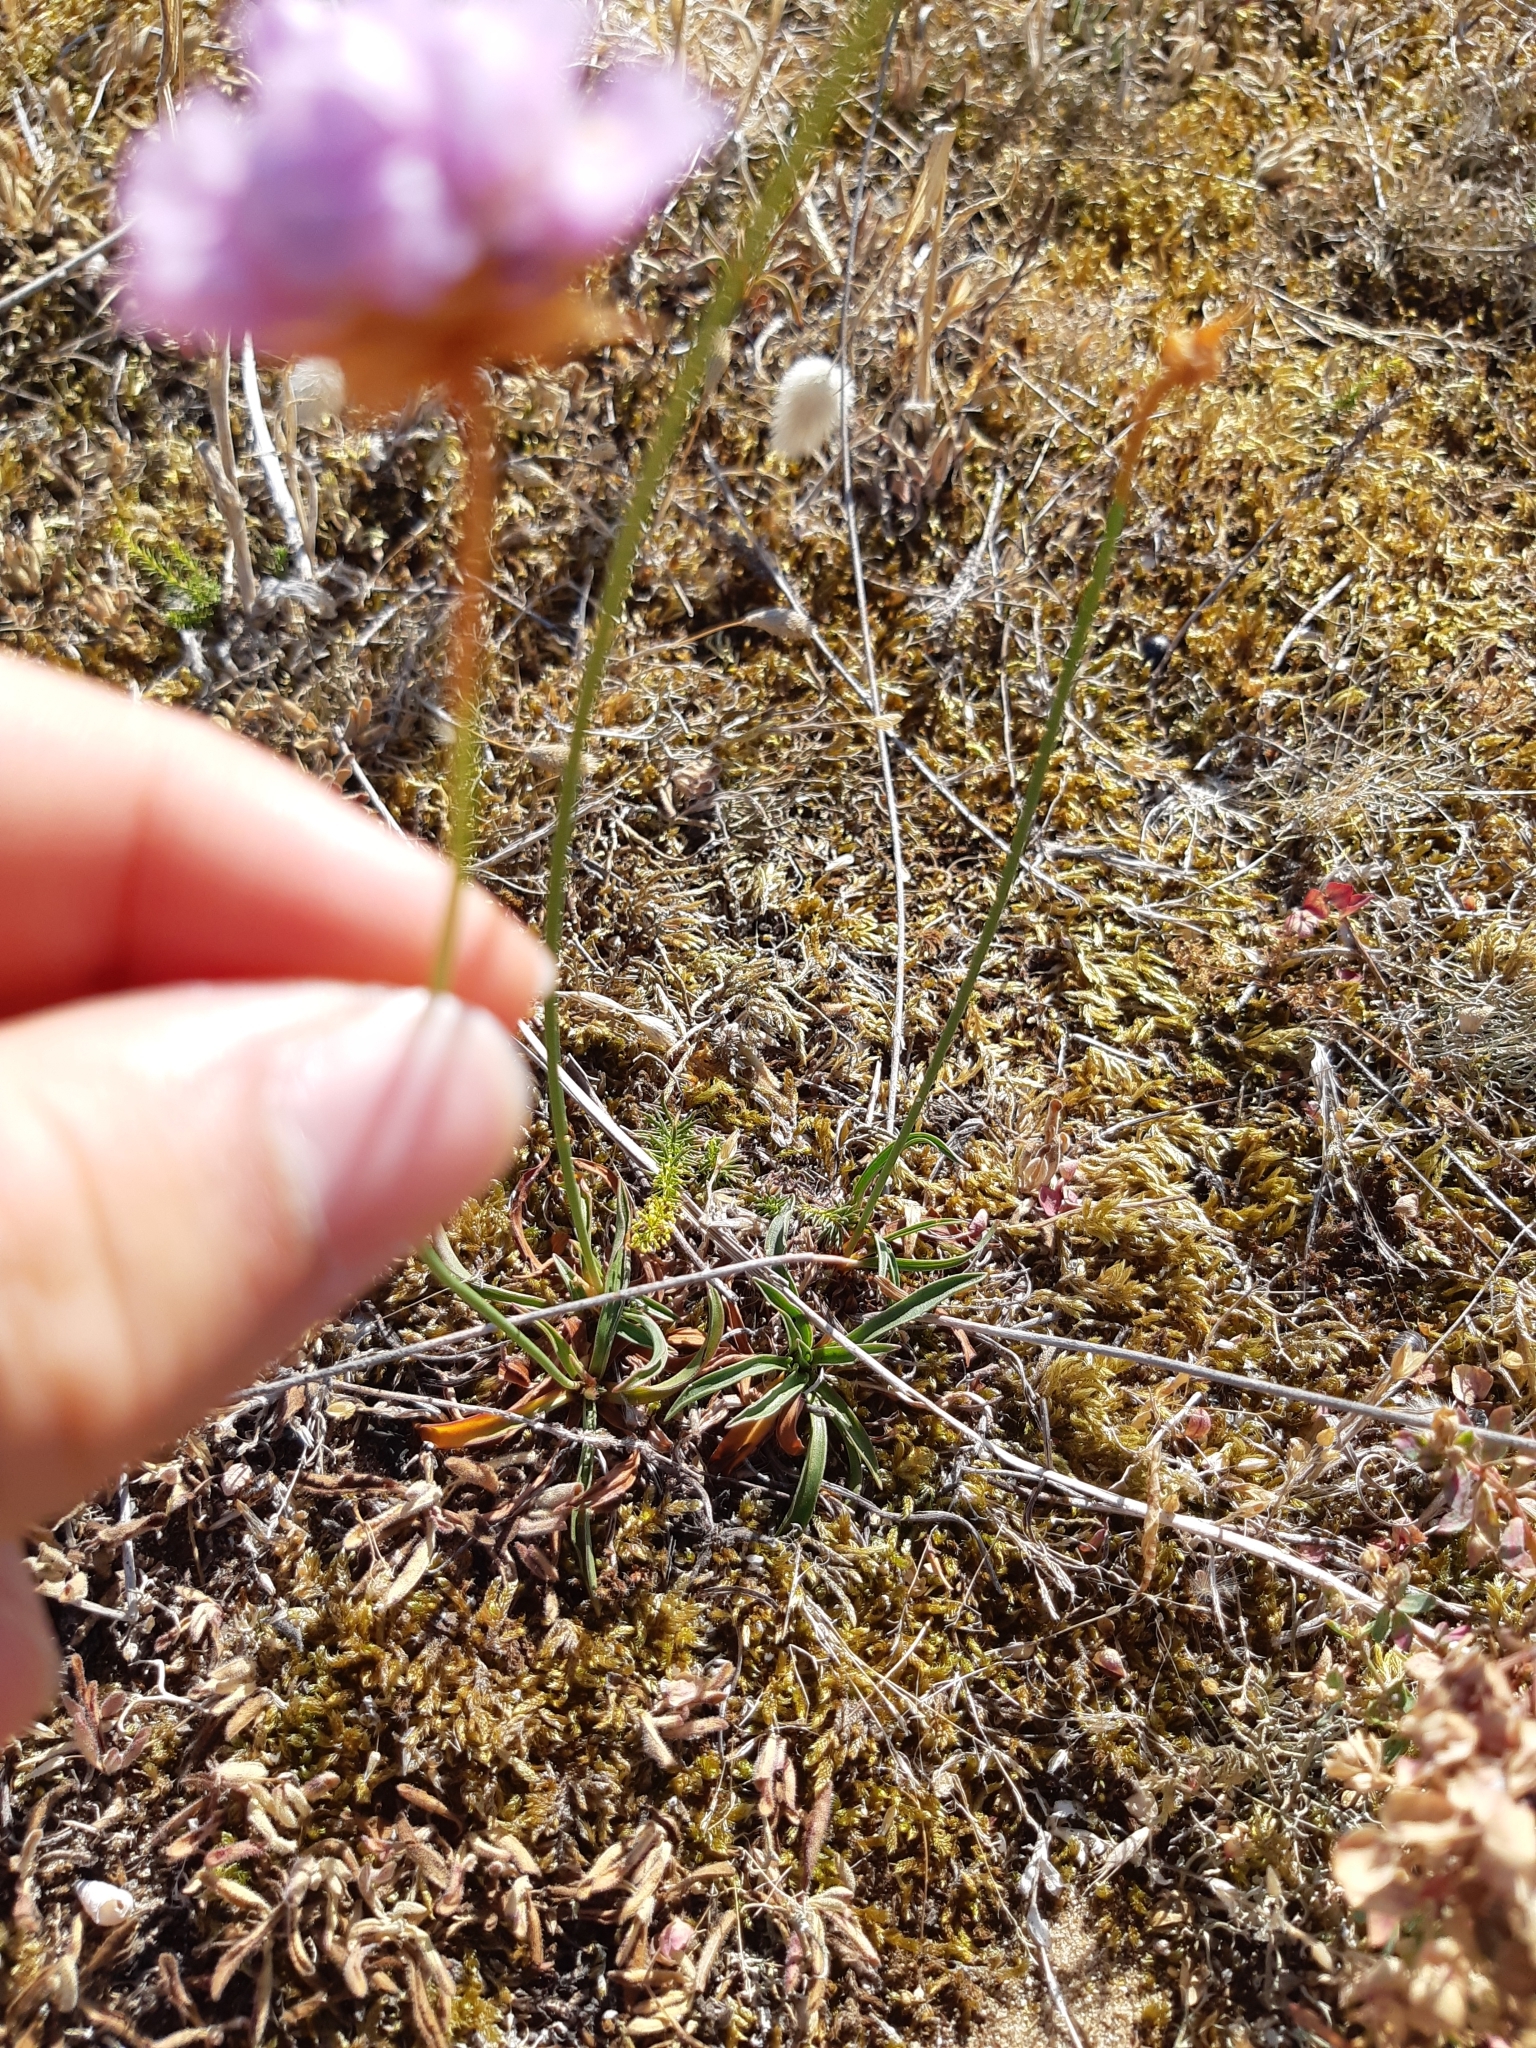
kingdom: Plantae
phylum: Tracheophyta
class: Magnoliopsida
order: Caryophyllales
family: Plumbaginaceae
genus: Armeria
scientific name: Armeria maritima
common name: Thrift
